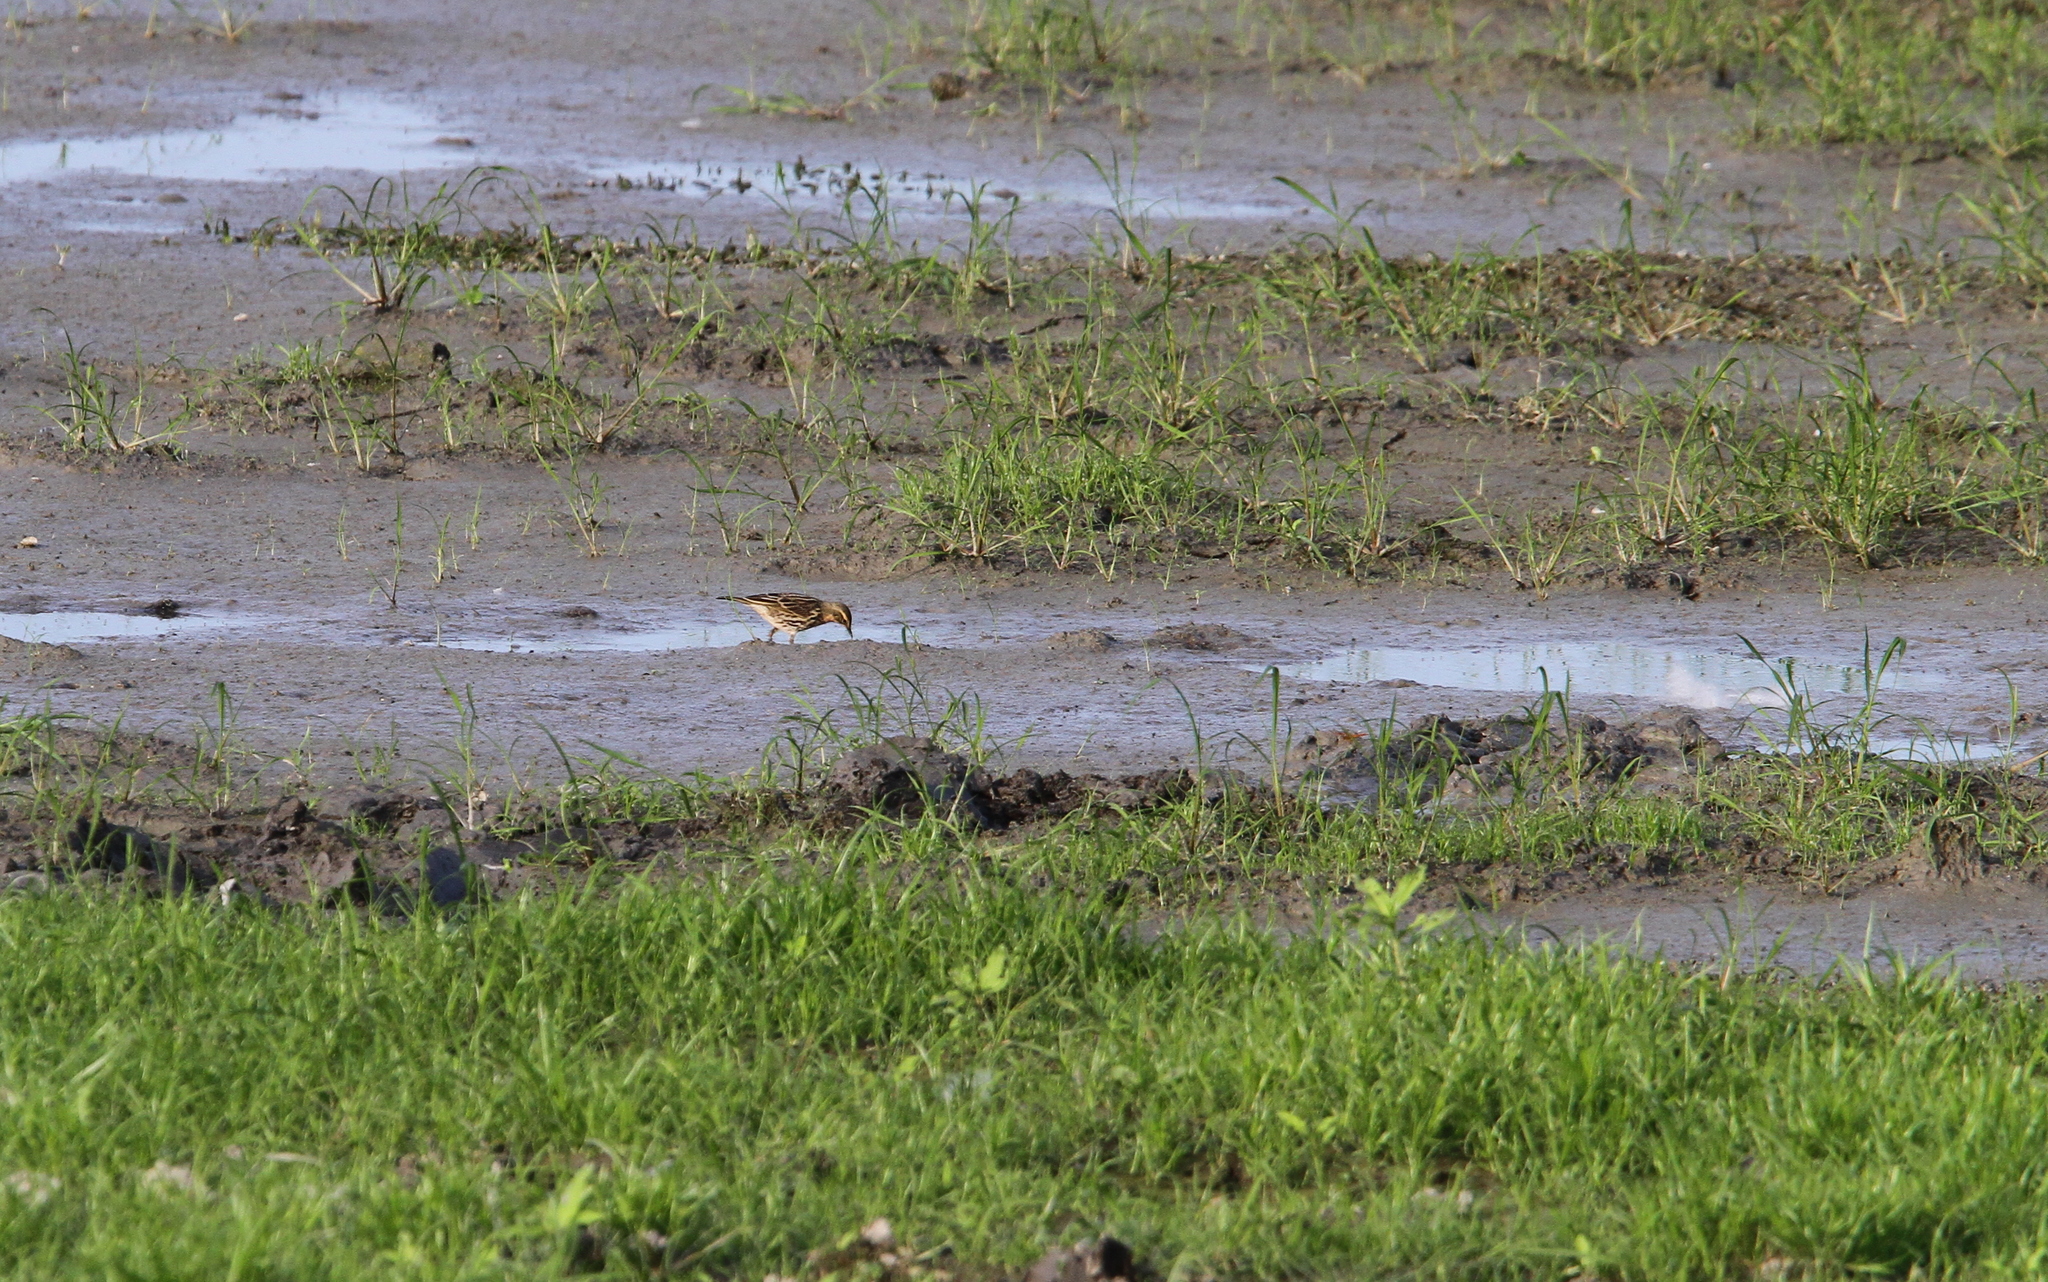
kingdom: Animalia
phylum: Chordata
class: Aves
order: Passeriformes
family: Motacillidae
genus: Anthus
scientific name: Anthus roseatus
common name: Rosy pipit
